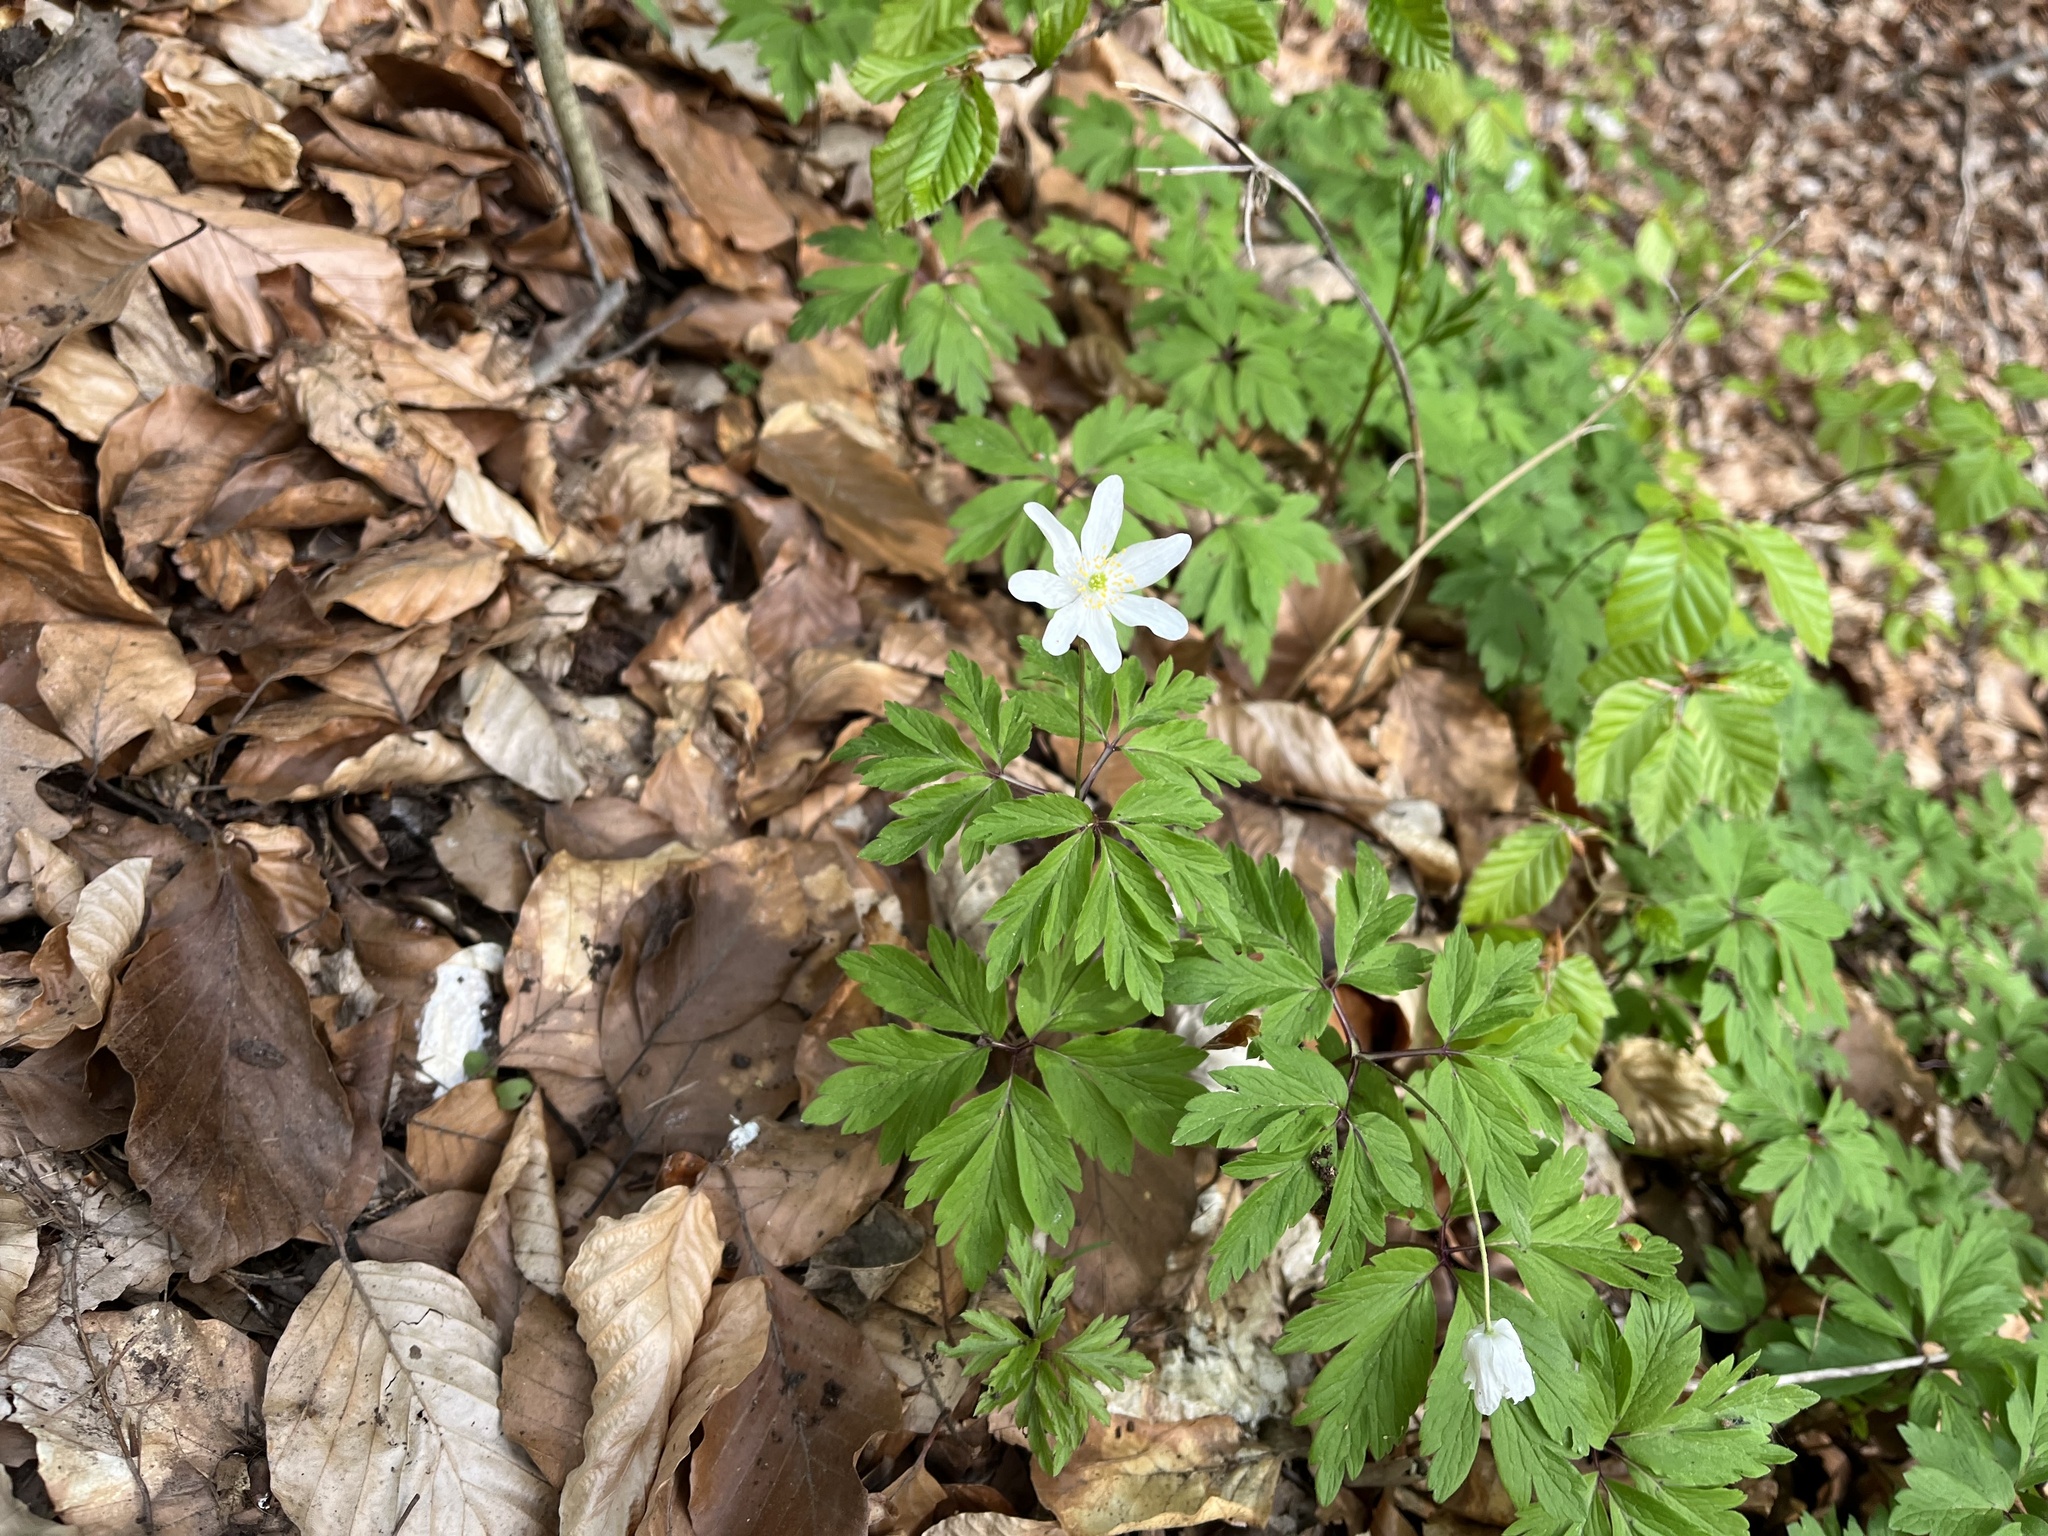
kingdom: Plantae
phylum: Tracheophyta
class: Magnoliopsida
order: Ranunculales
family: Ranunculaceae
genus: Anemone
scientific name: Anemone nemorosa
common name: Wood anemone
